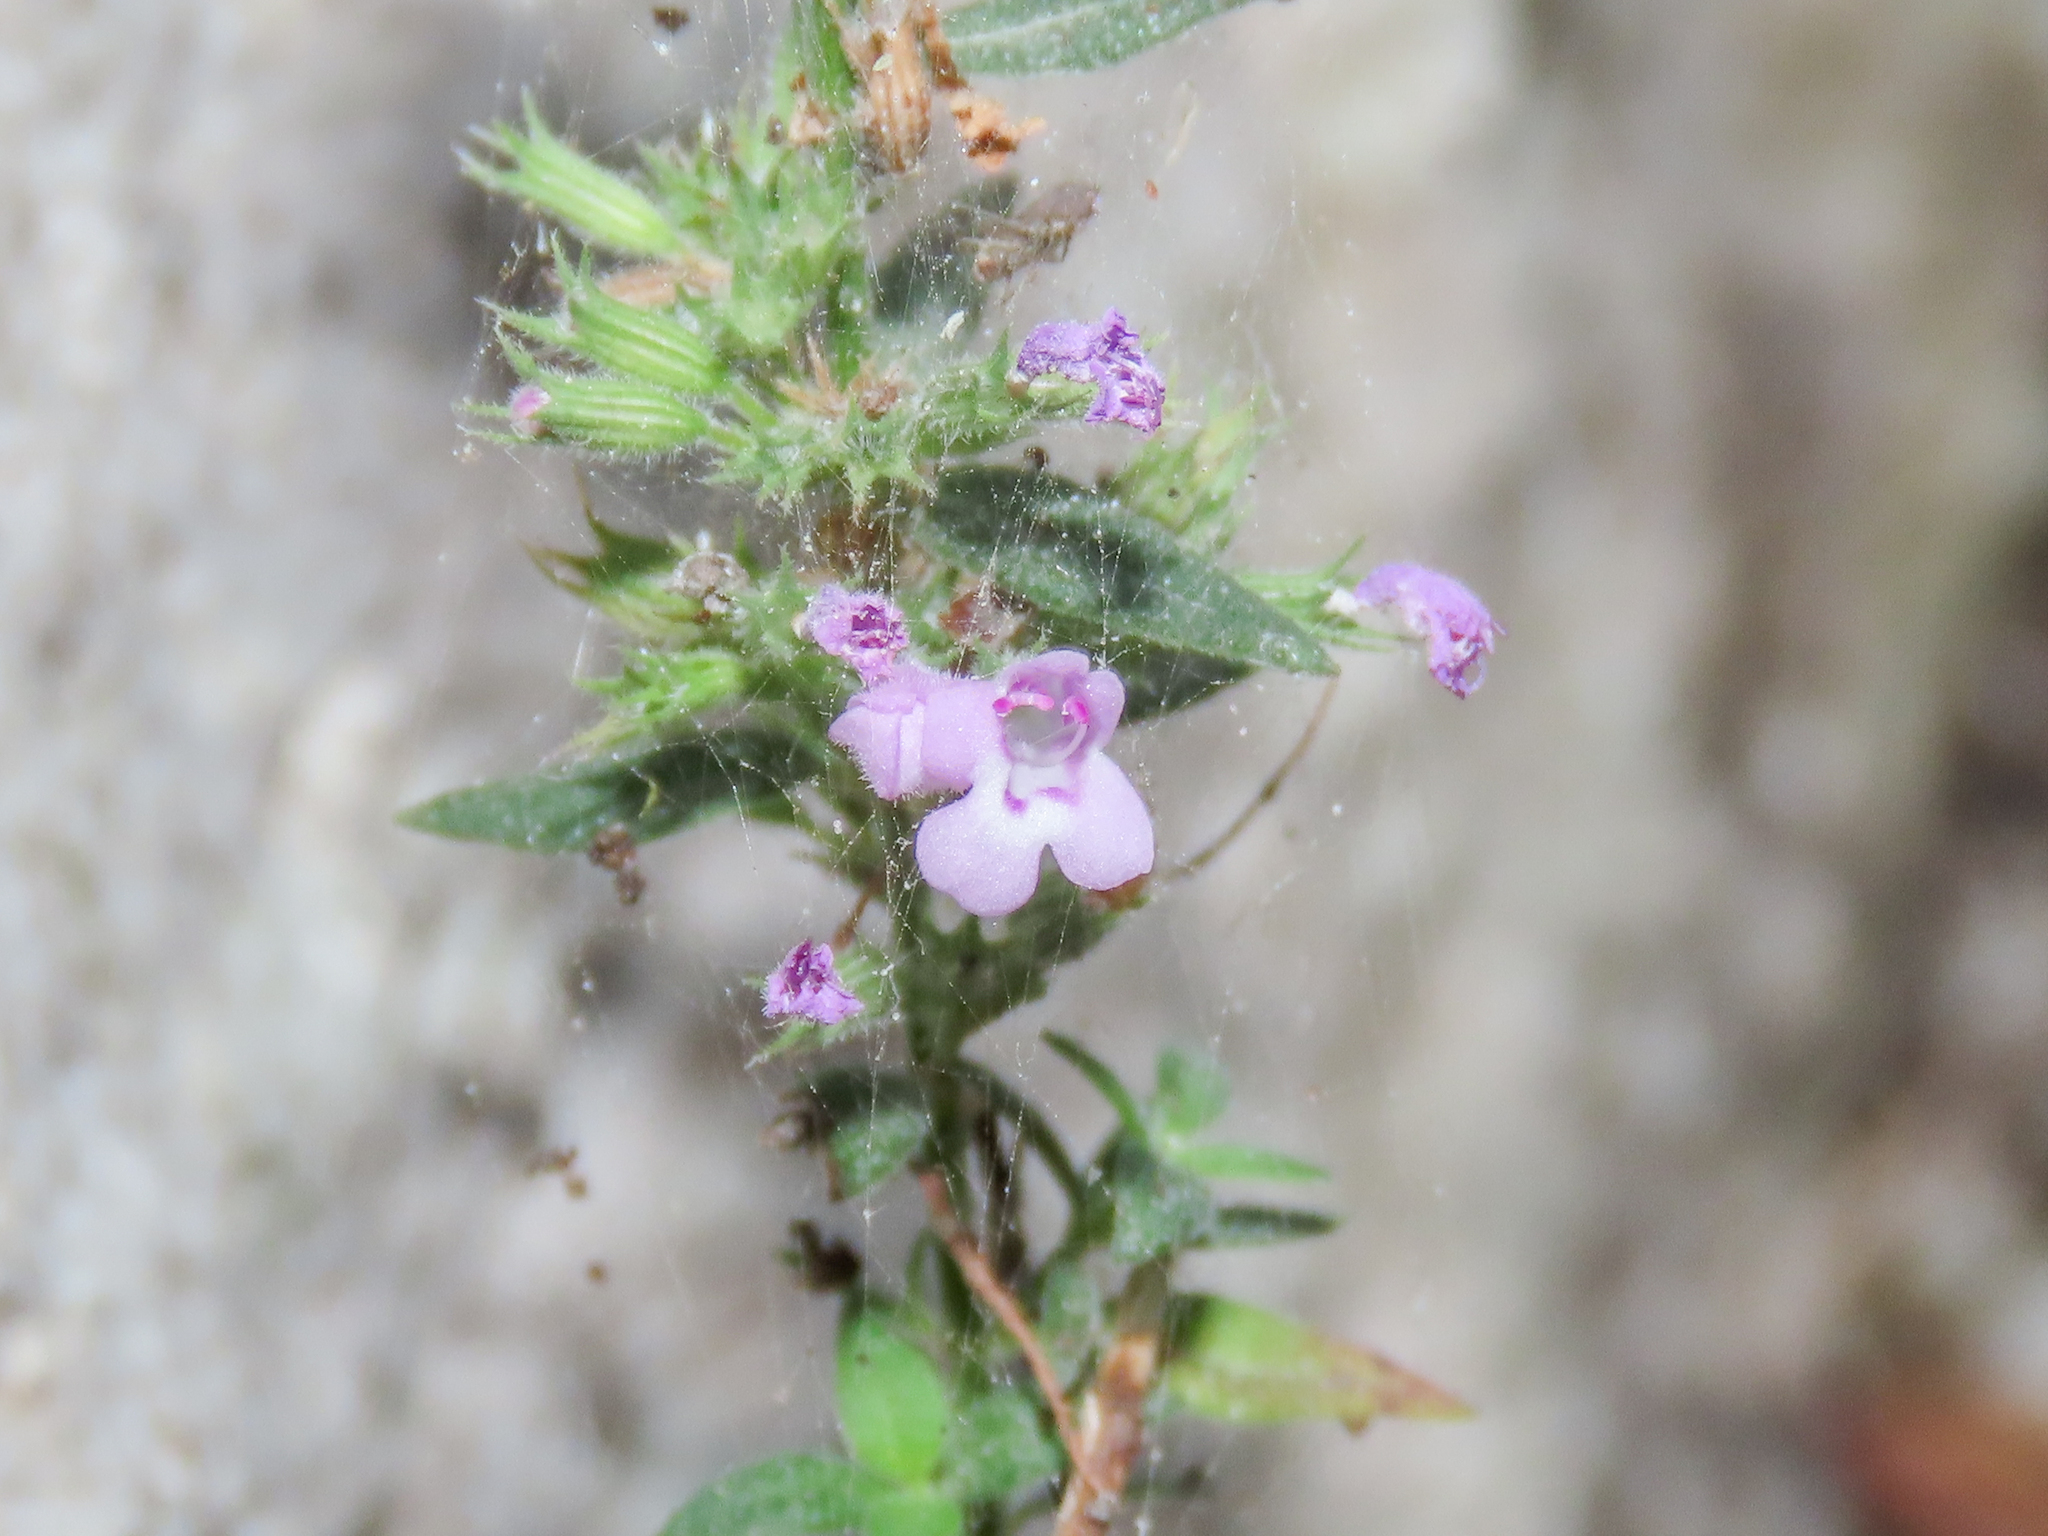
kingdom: Plantae
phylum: Tracheophyta
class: Magnoliopsida
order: Lamiales
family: Lamiaceae
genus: Micromeria
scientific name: Micromeria graeca
